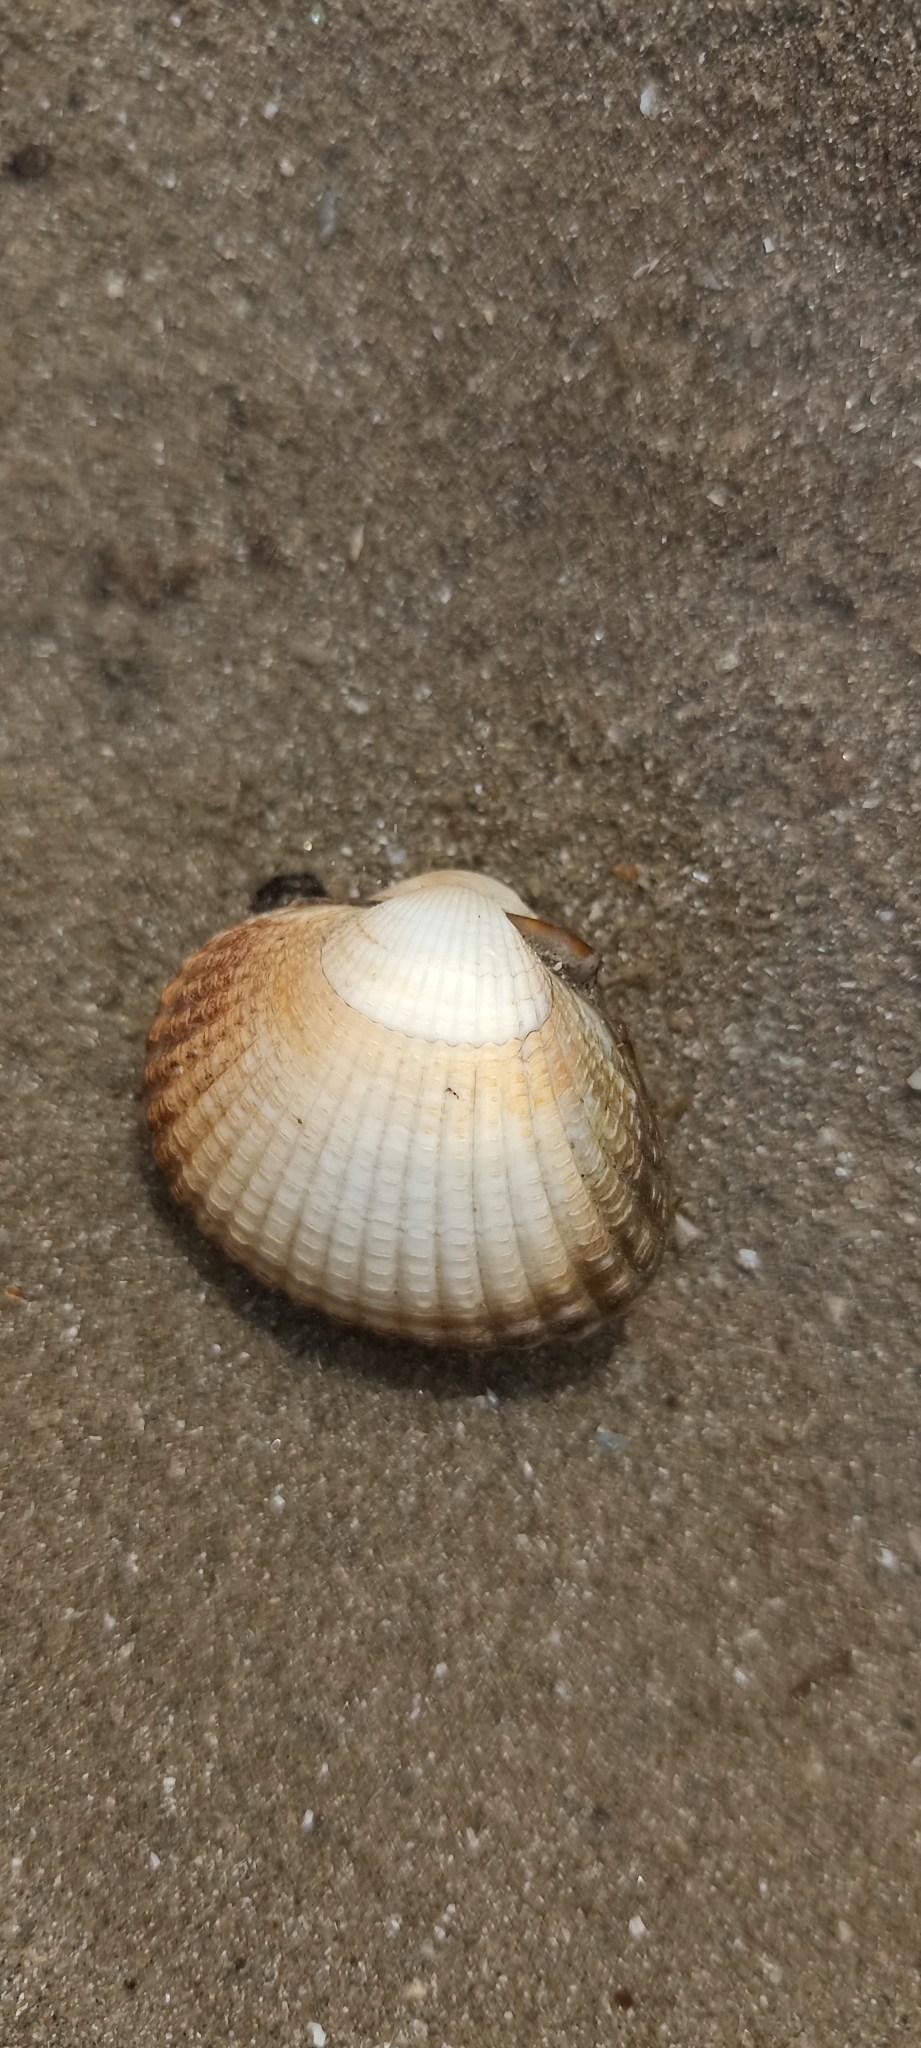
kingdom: Animalia
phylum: Mollusca
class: Bivalvia
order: Cardiida
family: Cardiidae
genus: Cerastoderma
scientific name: Cerastoderma edule
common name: Common cockle
